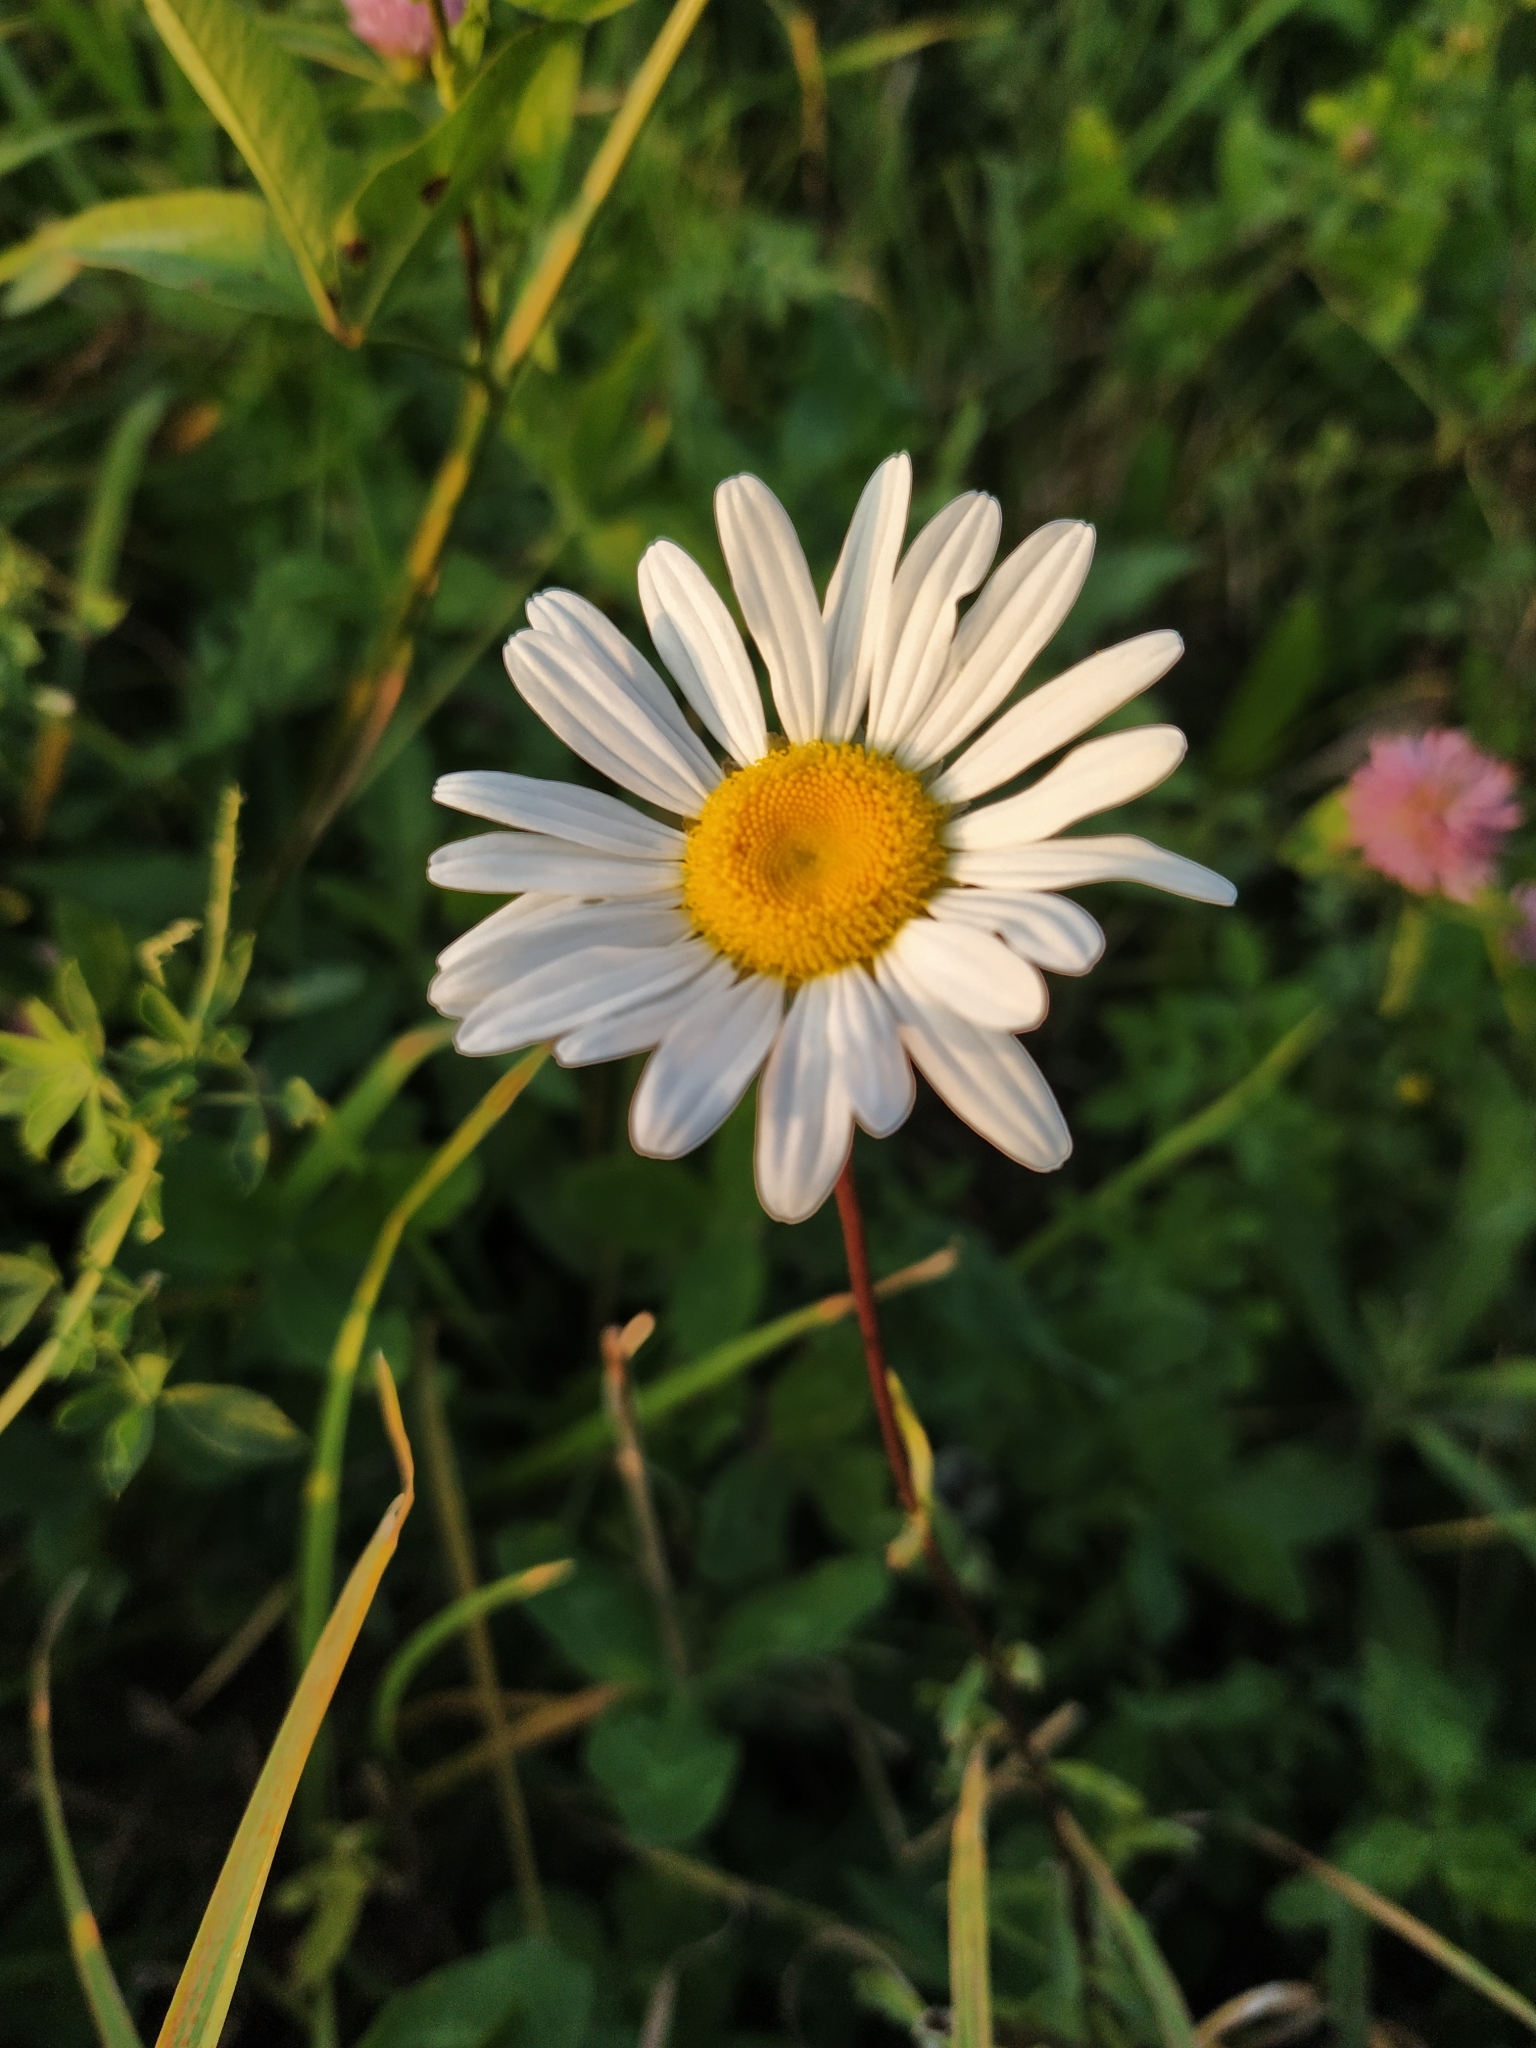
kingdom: Plantae
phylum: Tracheophyta
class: Magnoliopsida
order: Asterales
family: Asteraceae
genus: Leucanthemum
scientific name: Leucanthemum vulgare
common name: Oxeye daisy
